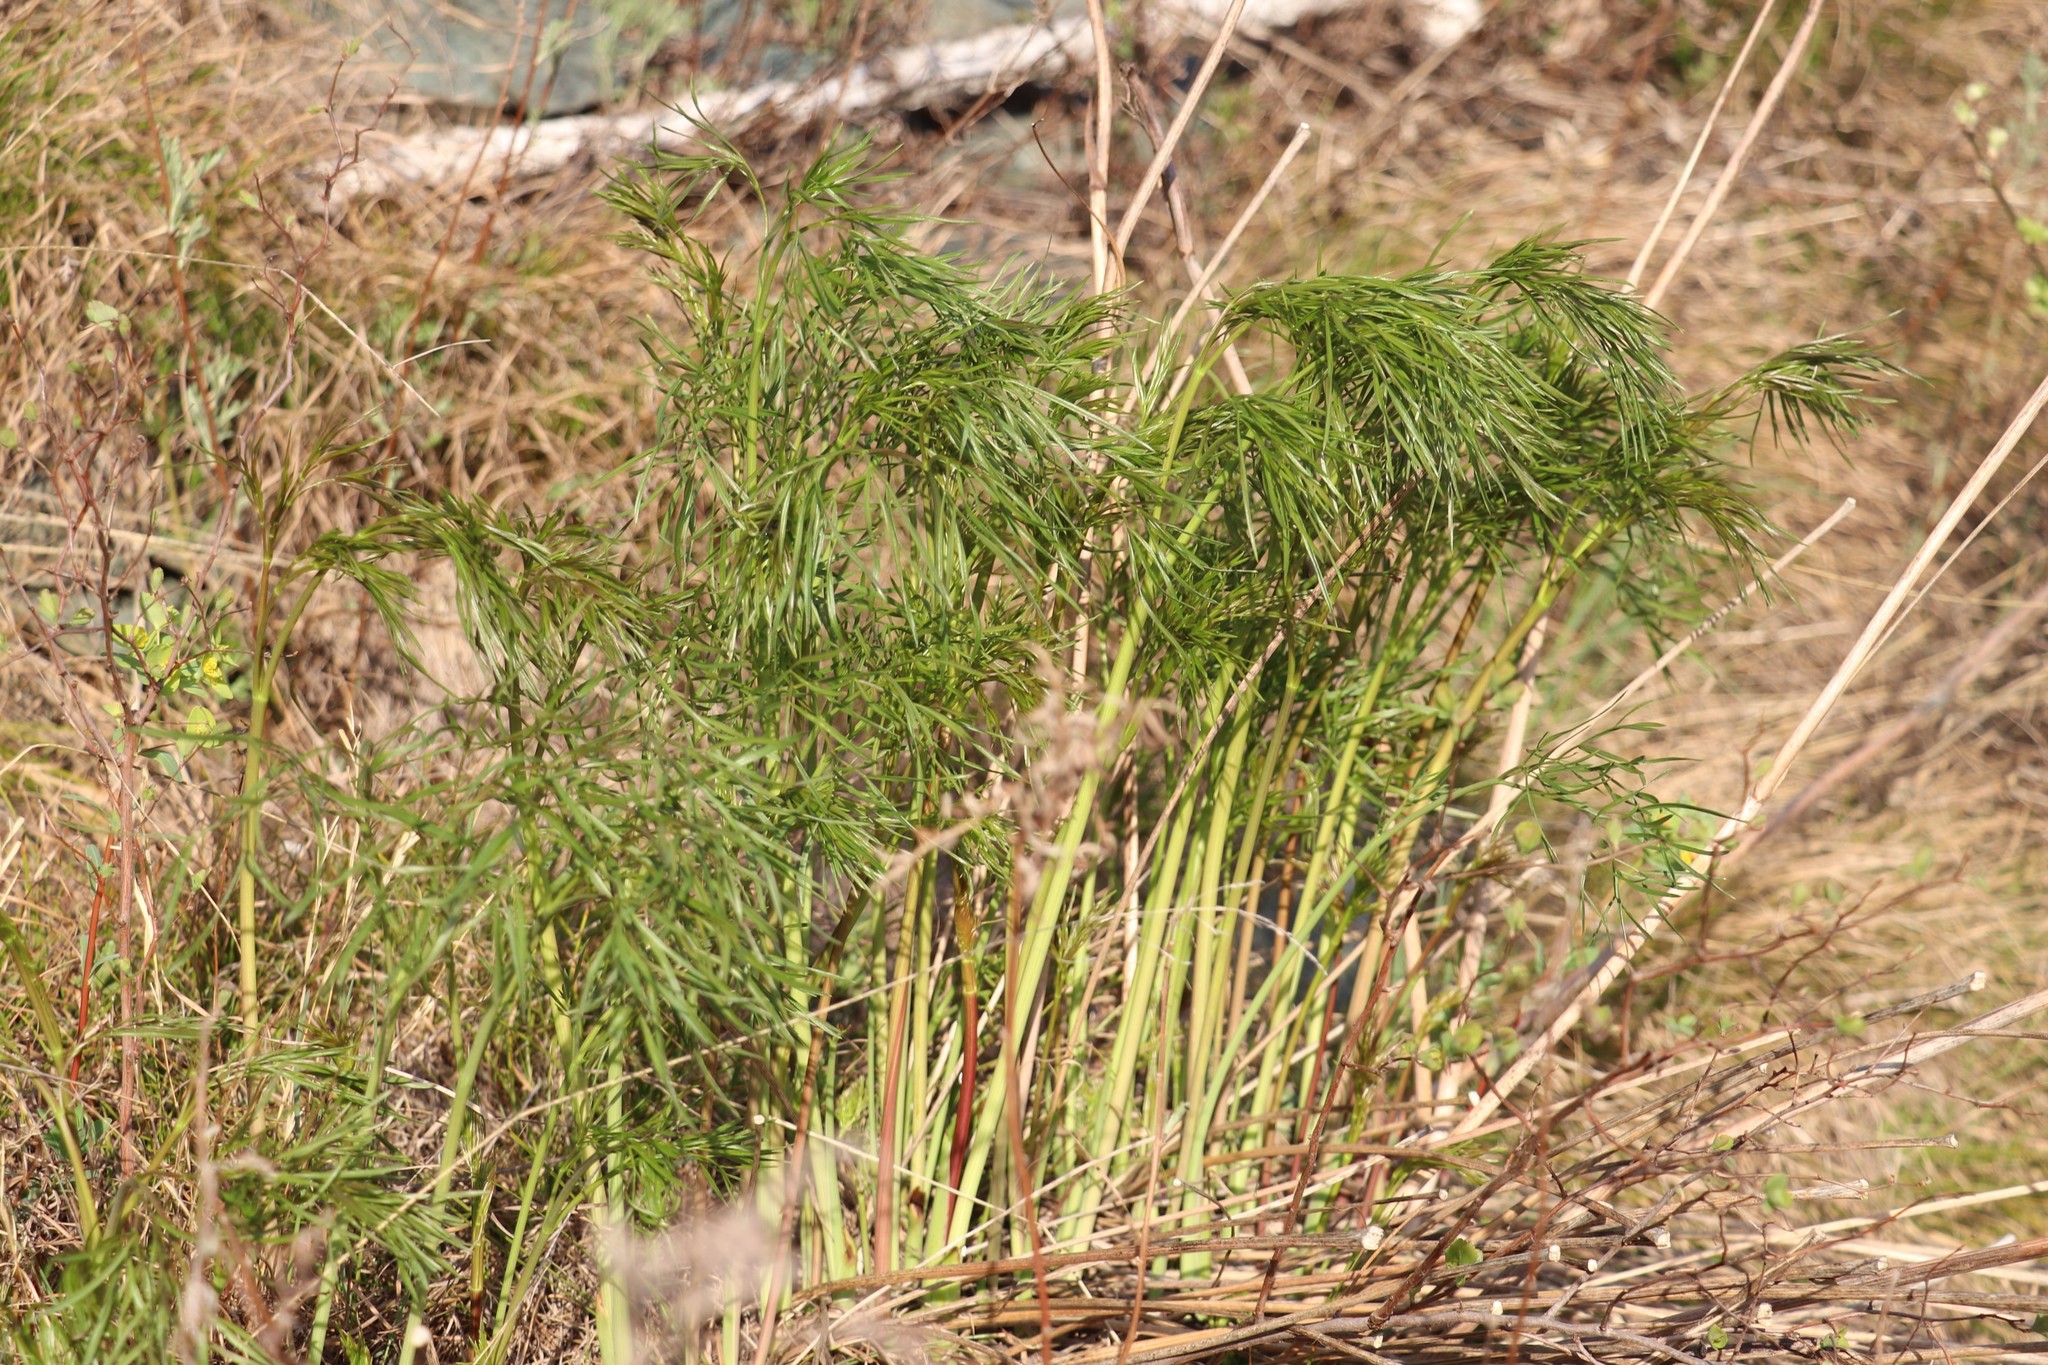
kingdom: Plantae
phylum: Tracheophyta
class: Magnoliopsida
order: Apiales
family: Apiaceae
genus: Peucedanum
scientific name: Peucedanum morisonii
